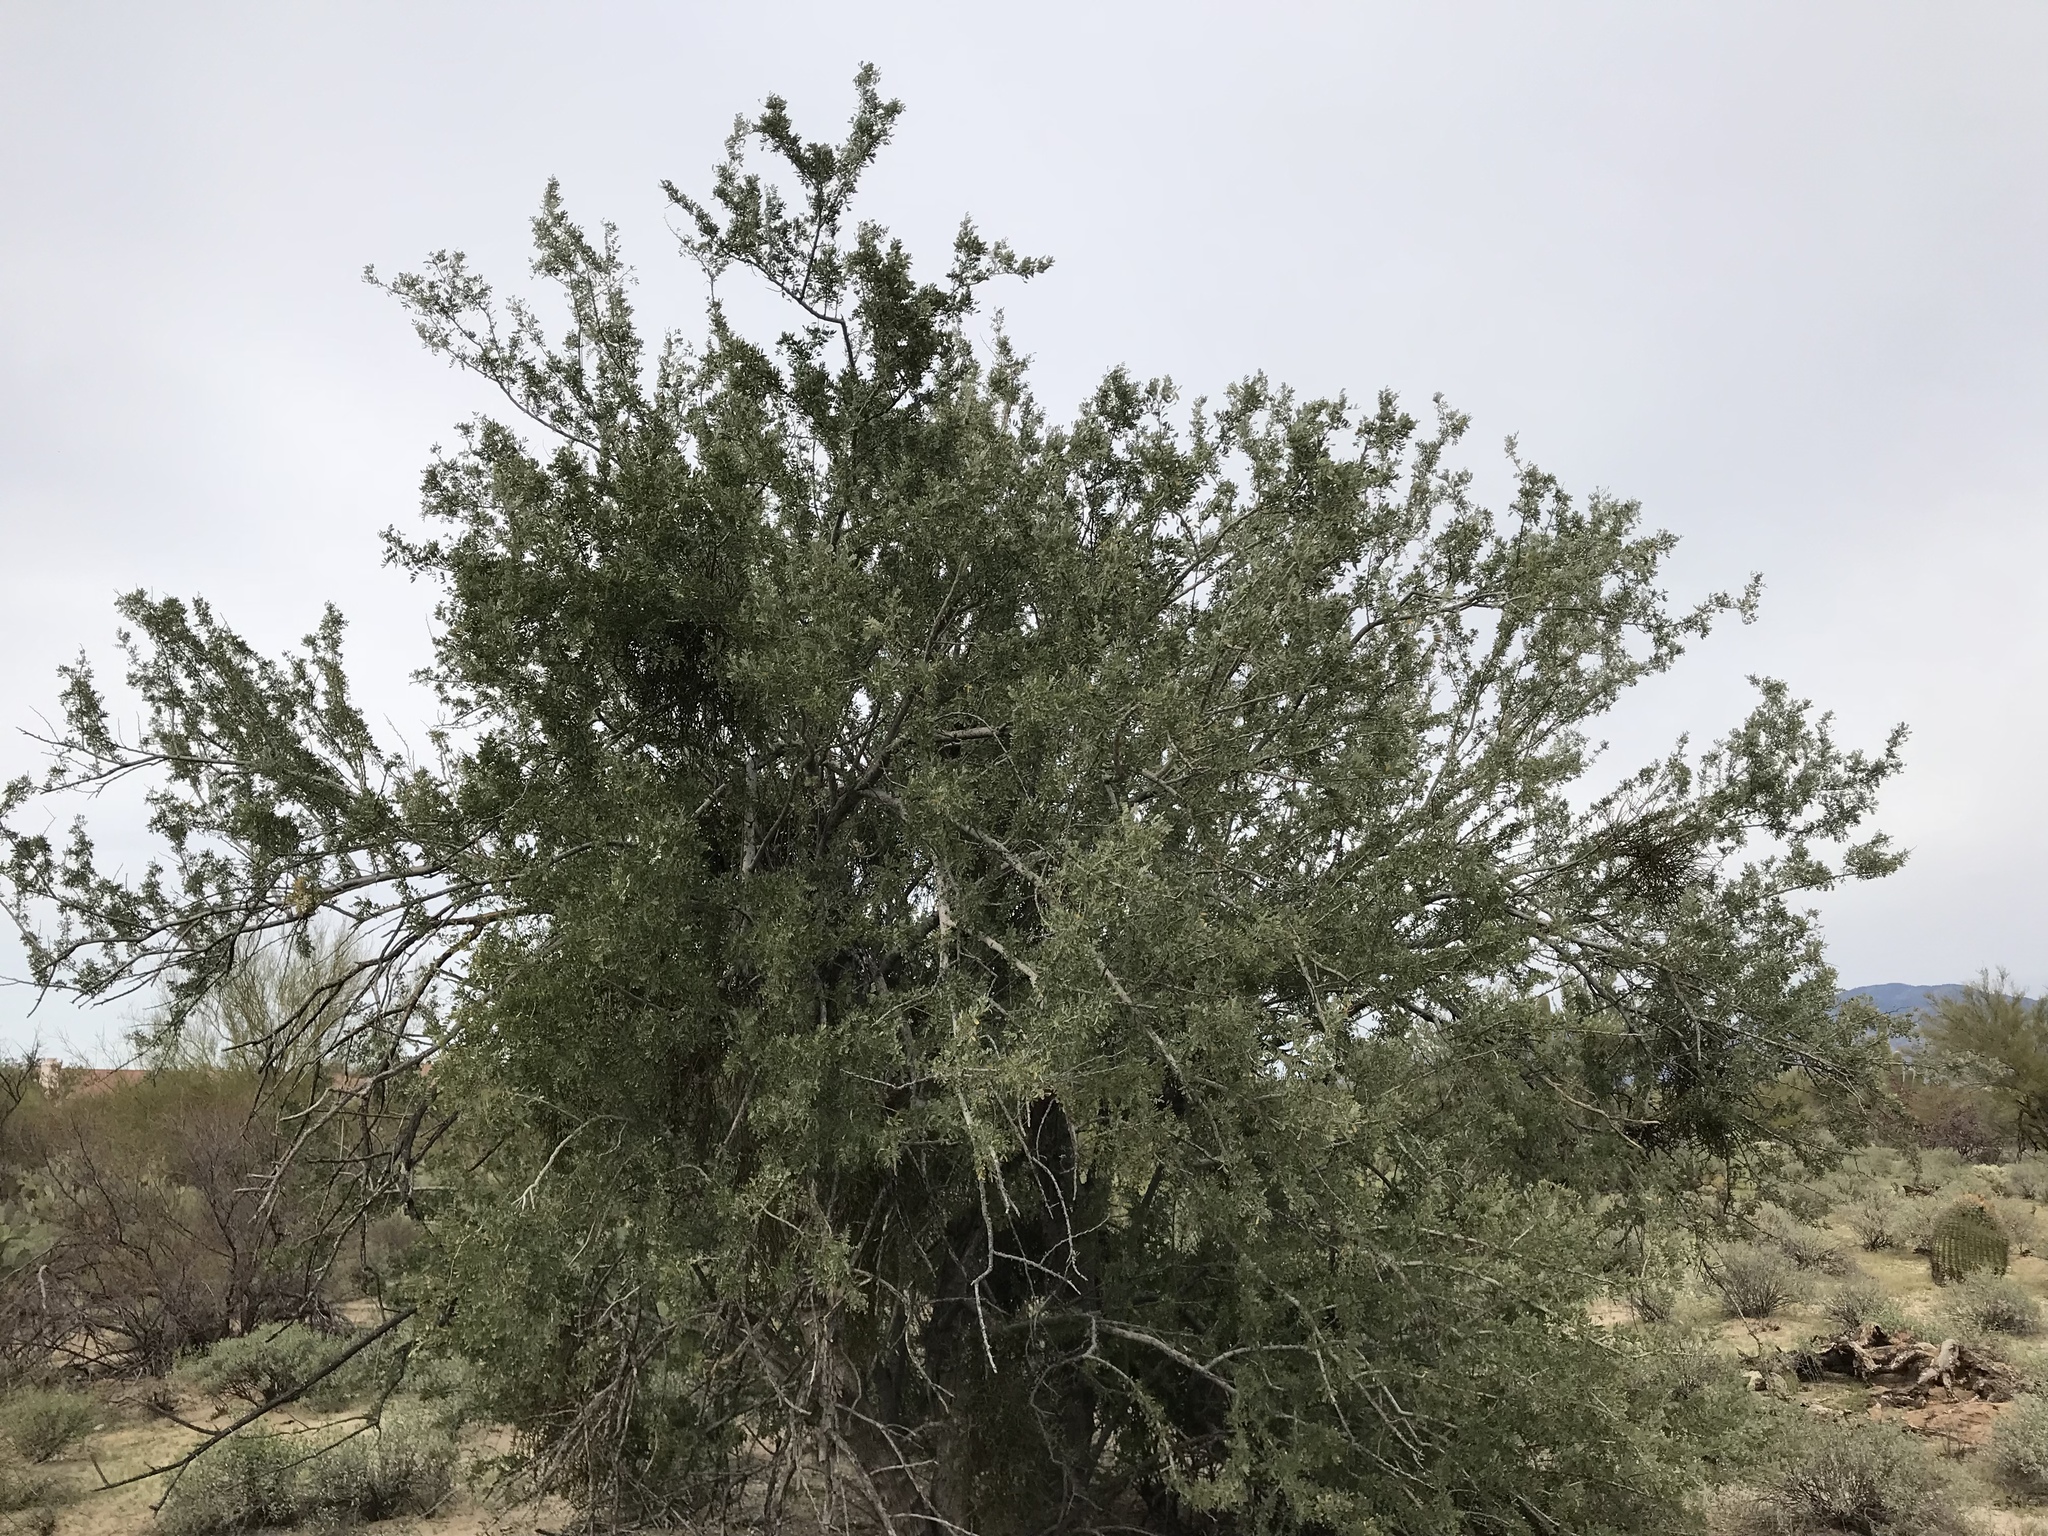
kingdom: Plantae
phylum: Tracheophyta
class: Magnoliopsida
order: Fabales
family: Fabaceae
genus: Olneya
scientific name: Olneya tesota
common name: Desert ironwood
